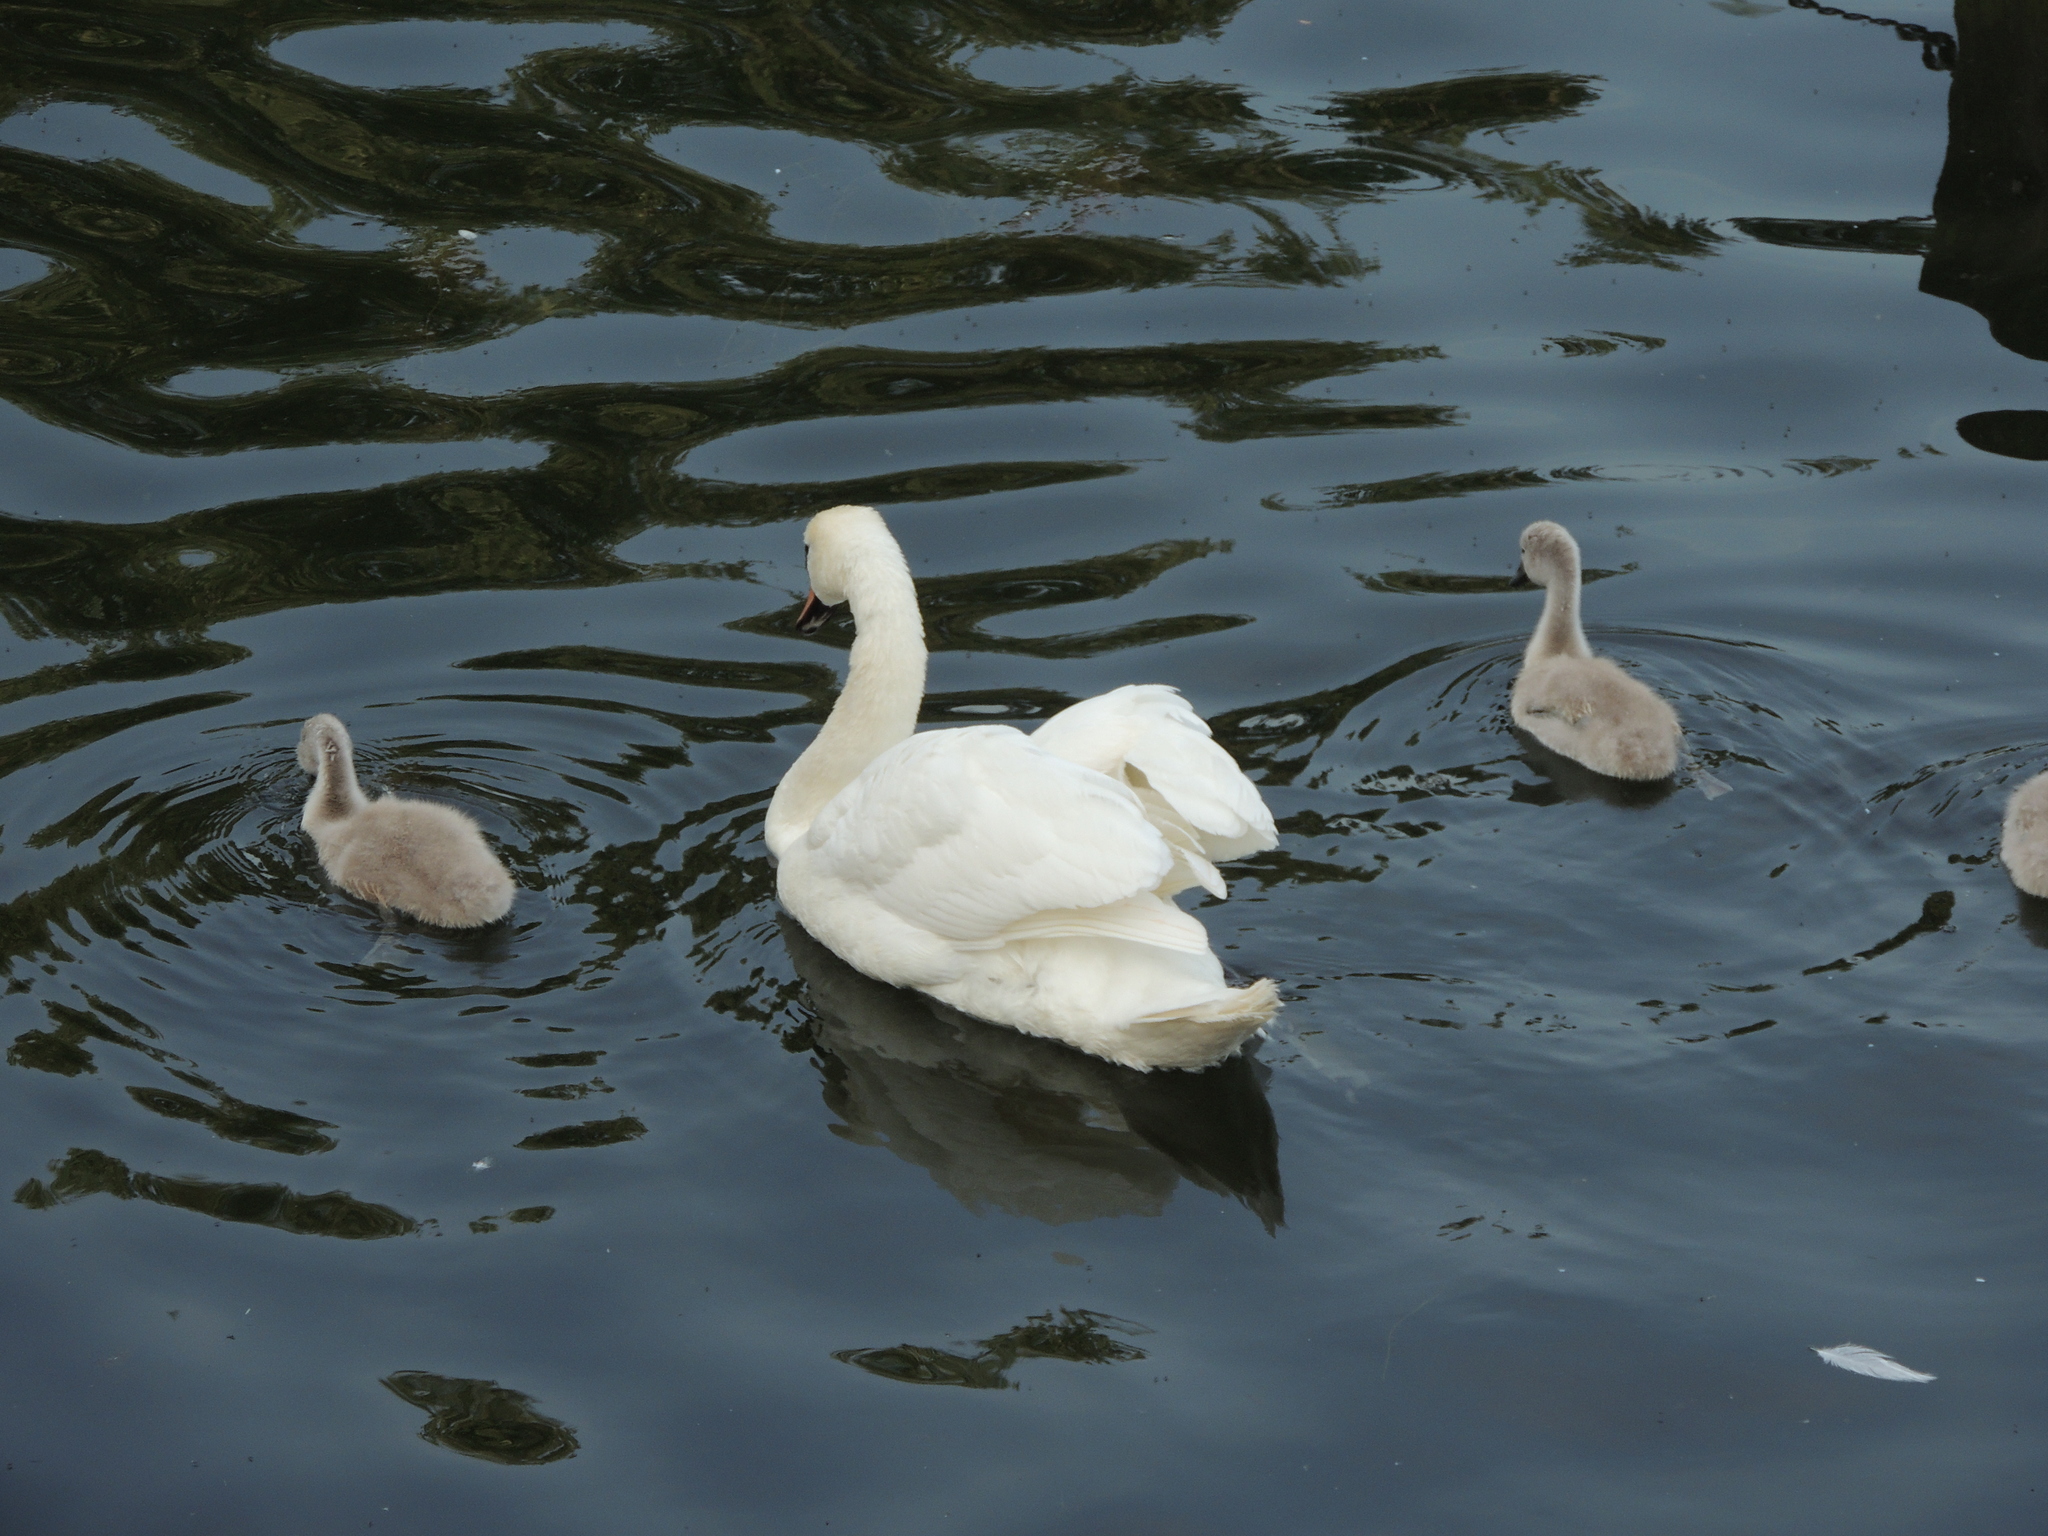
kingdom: Animalia
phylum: Chordata
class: Aves
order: Anseriformes
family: Anatidae
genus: Cygnus
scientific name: Cygnus olor
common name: Mute swan
